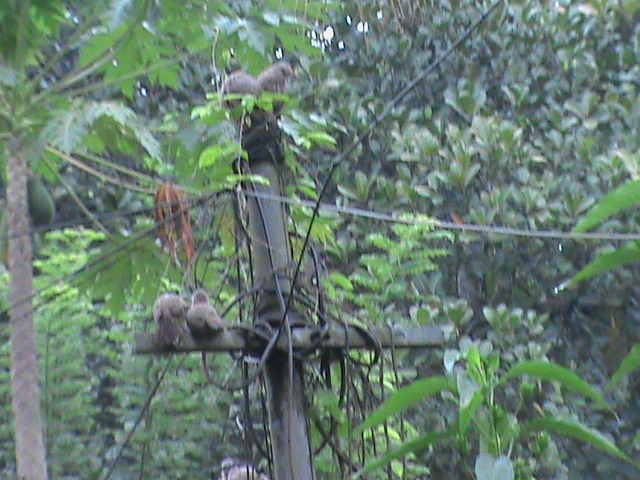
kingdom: Animalia
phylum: Chordata
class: Aves
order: Passeriformes
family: Leiothrichidae
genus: Turdoides
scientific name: Turdoides striata
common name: Jungle babbler
